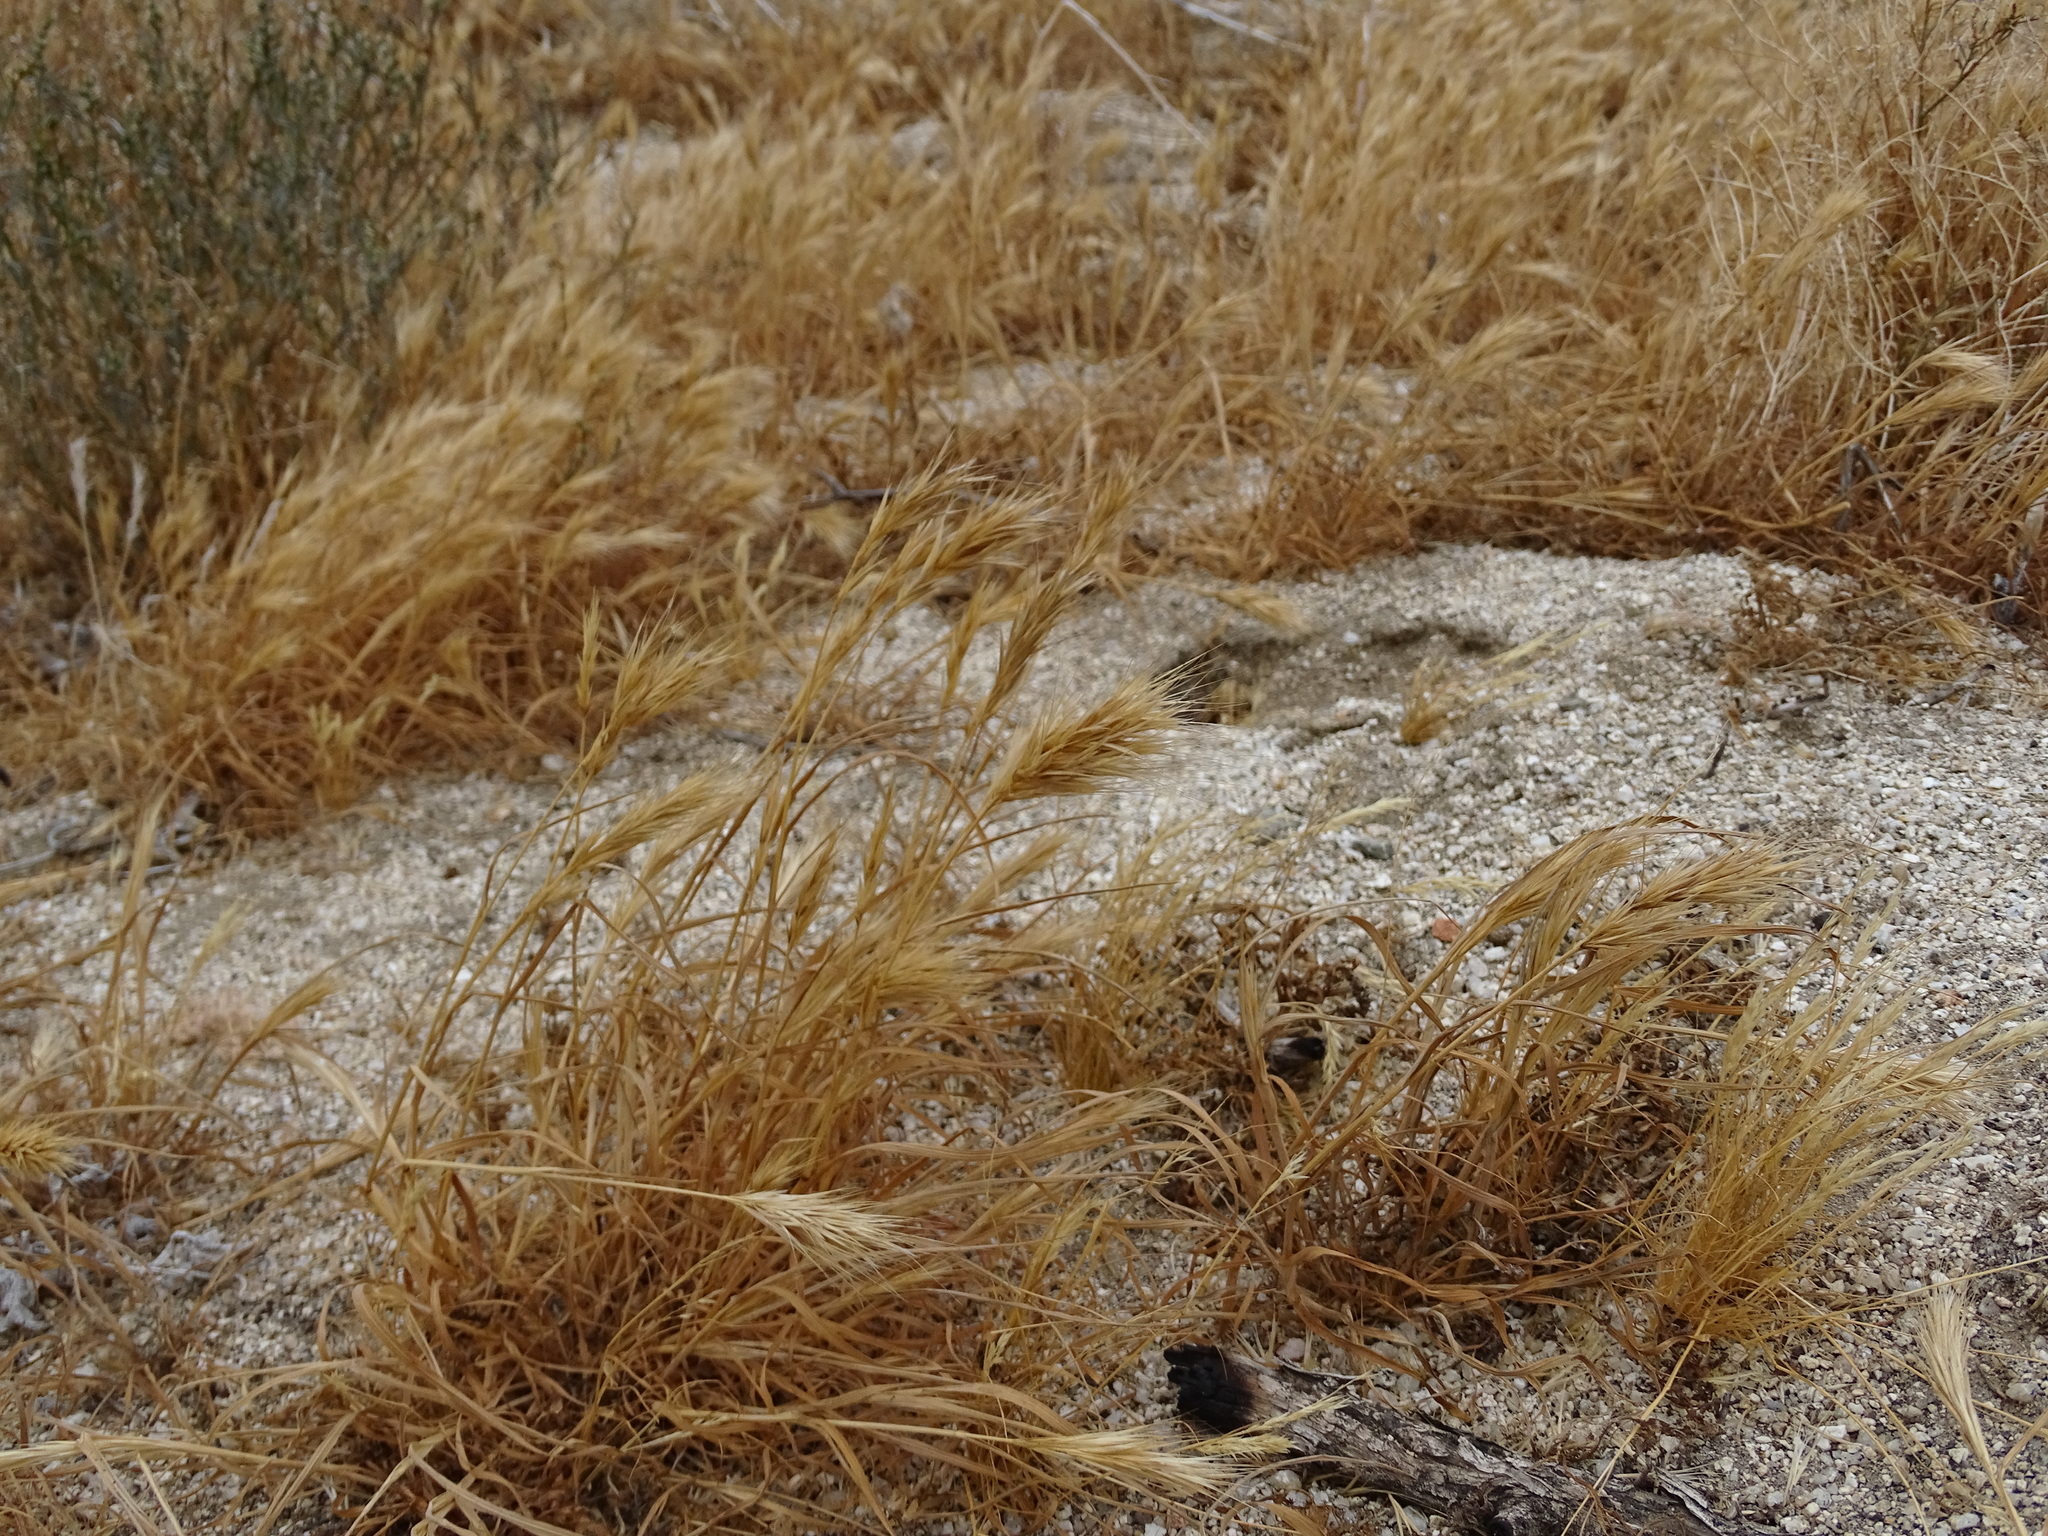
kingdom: Plantae
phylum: Tracheophyta
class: Liliopsida
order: Poales
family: Poaceae
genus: Bromus
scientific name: Bromus rubens
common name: Red brome
